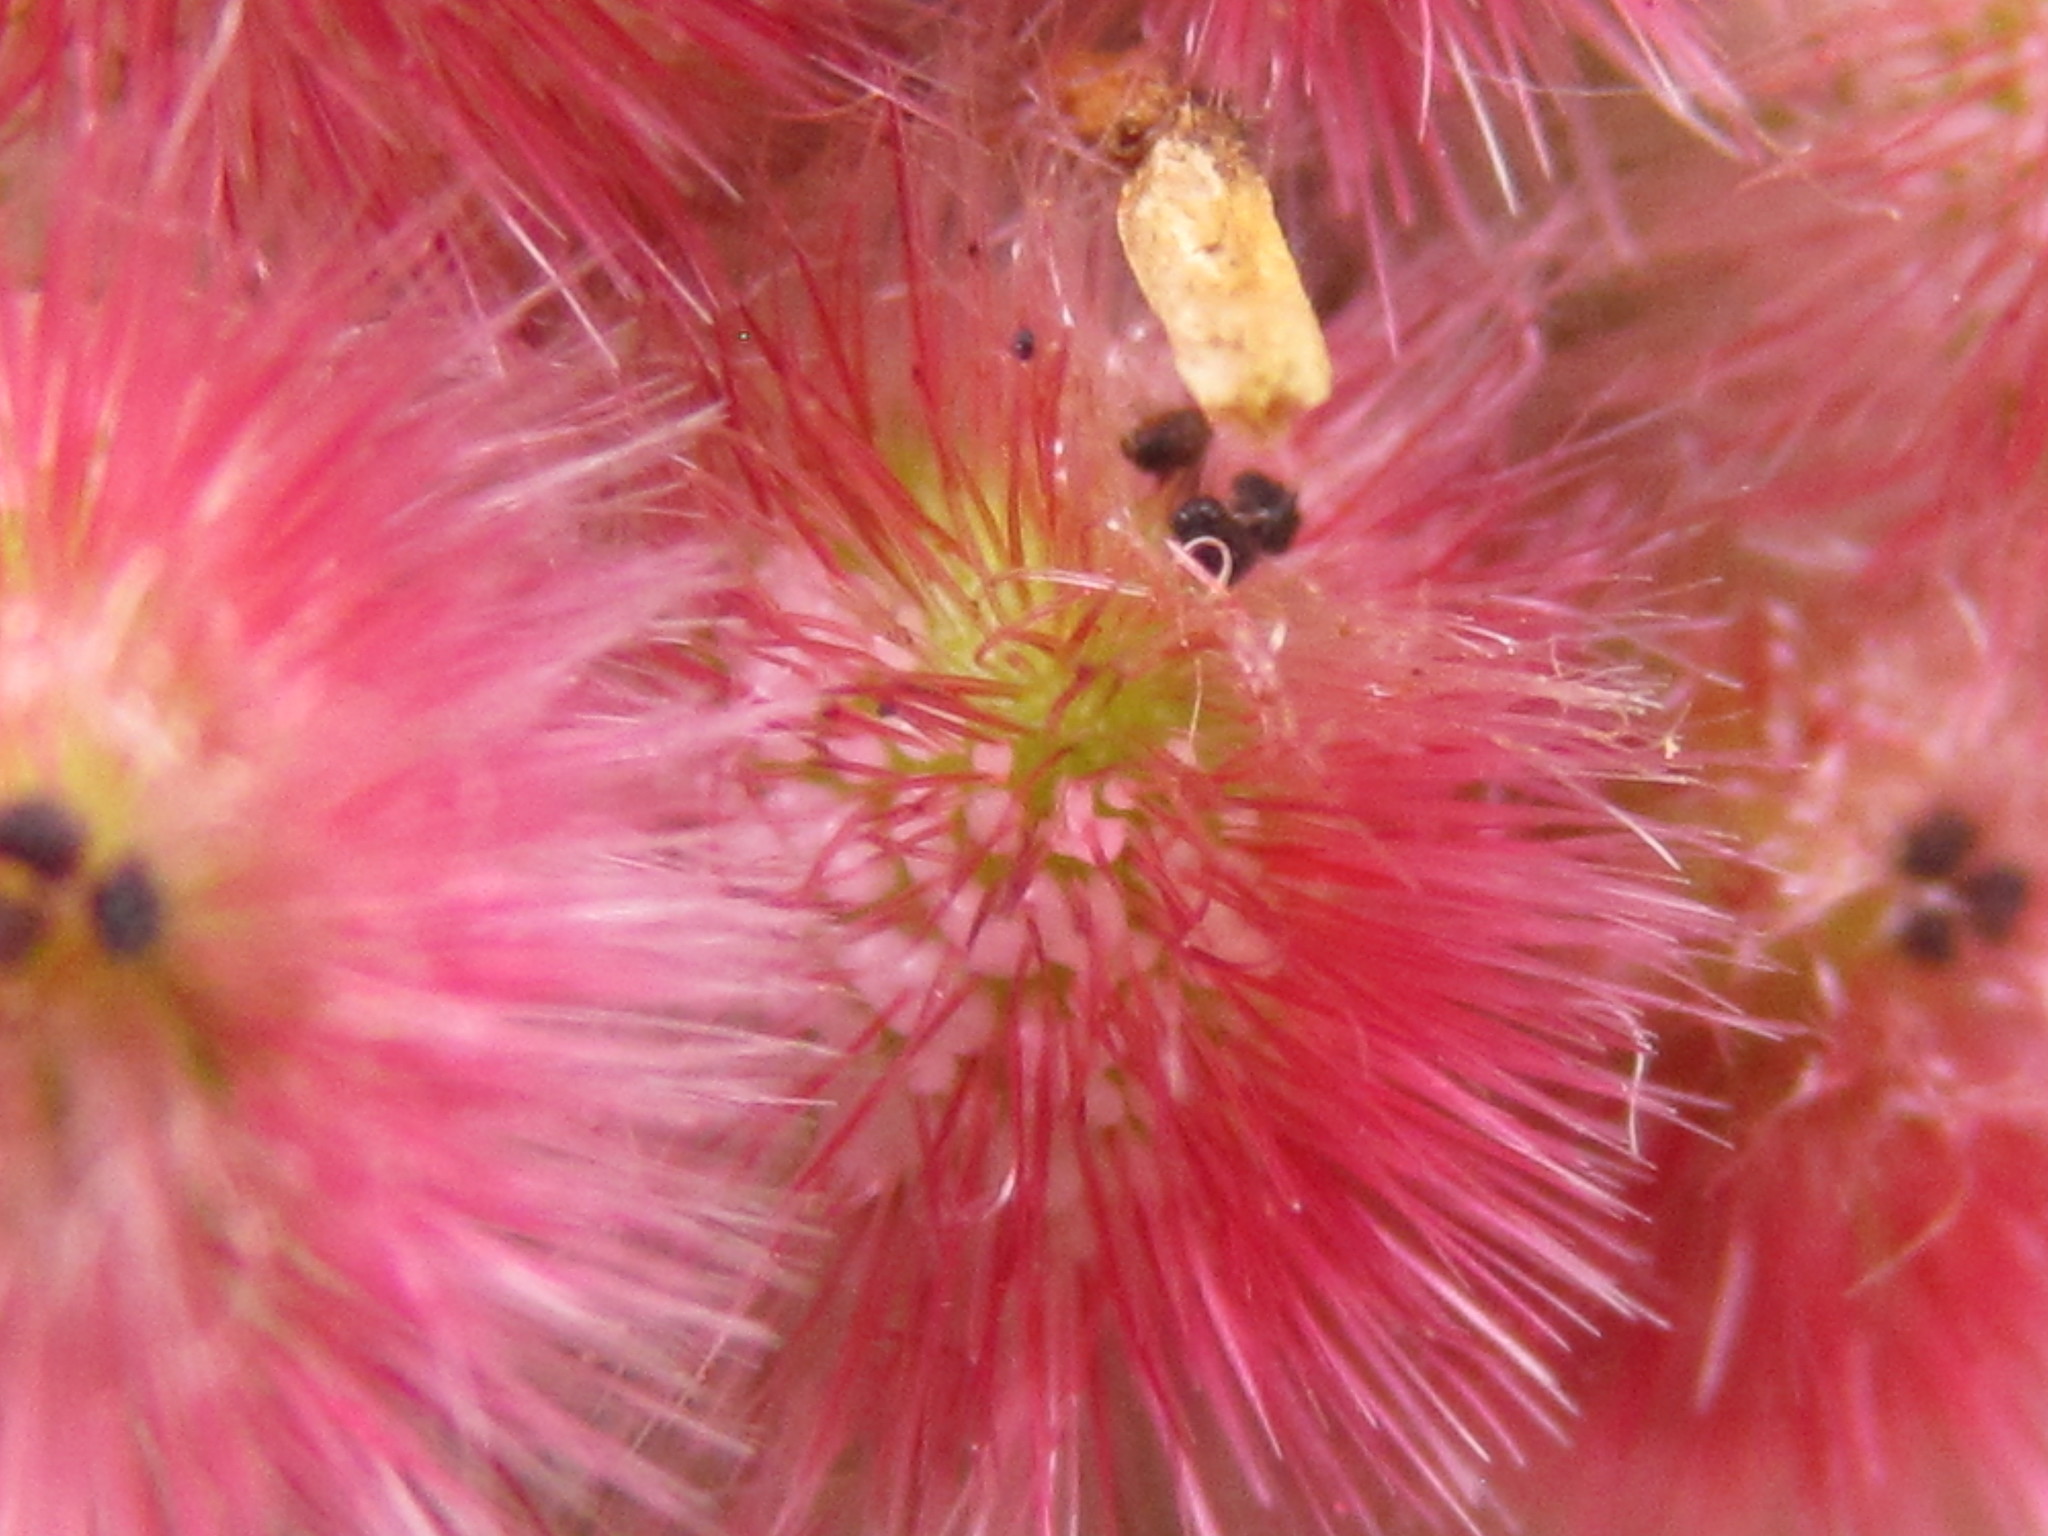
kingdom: Plantae
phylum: Tracheophyta
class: Magnoliopsida
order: Sapindales
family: Anacardiaceae
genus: Rhus
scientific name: Rhus typhina
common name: Staghorn sumac
